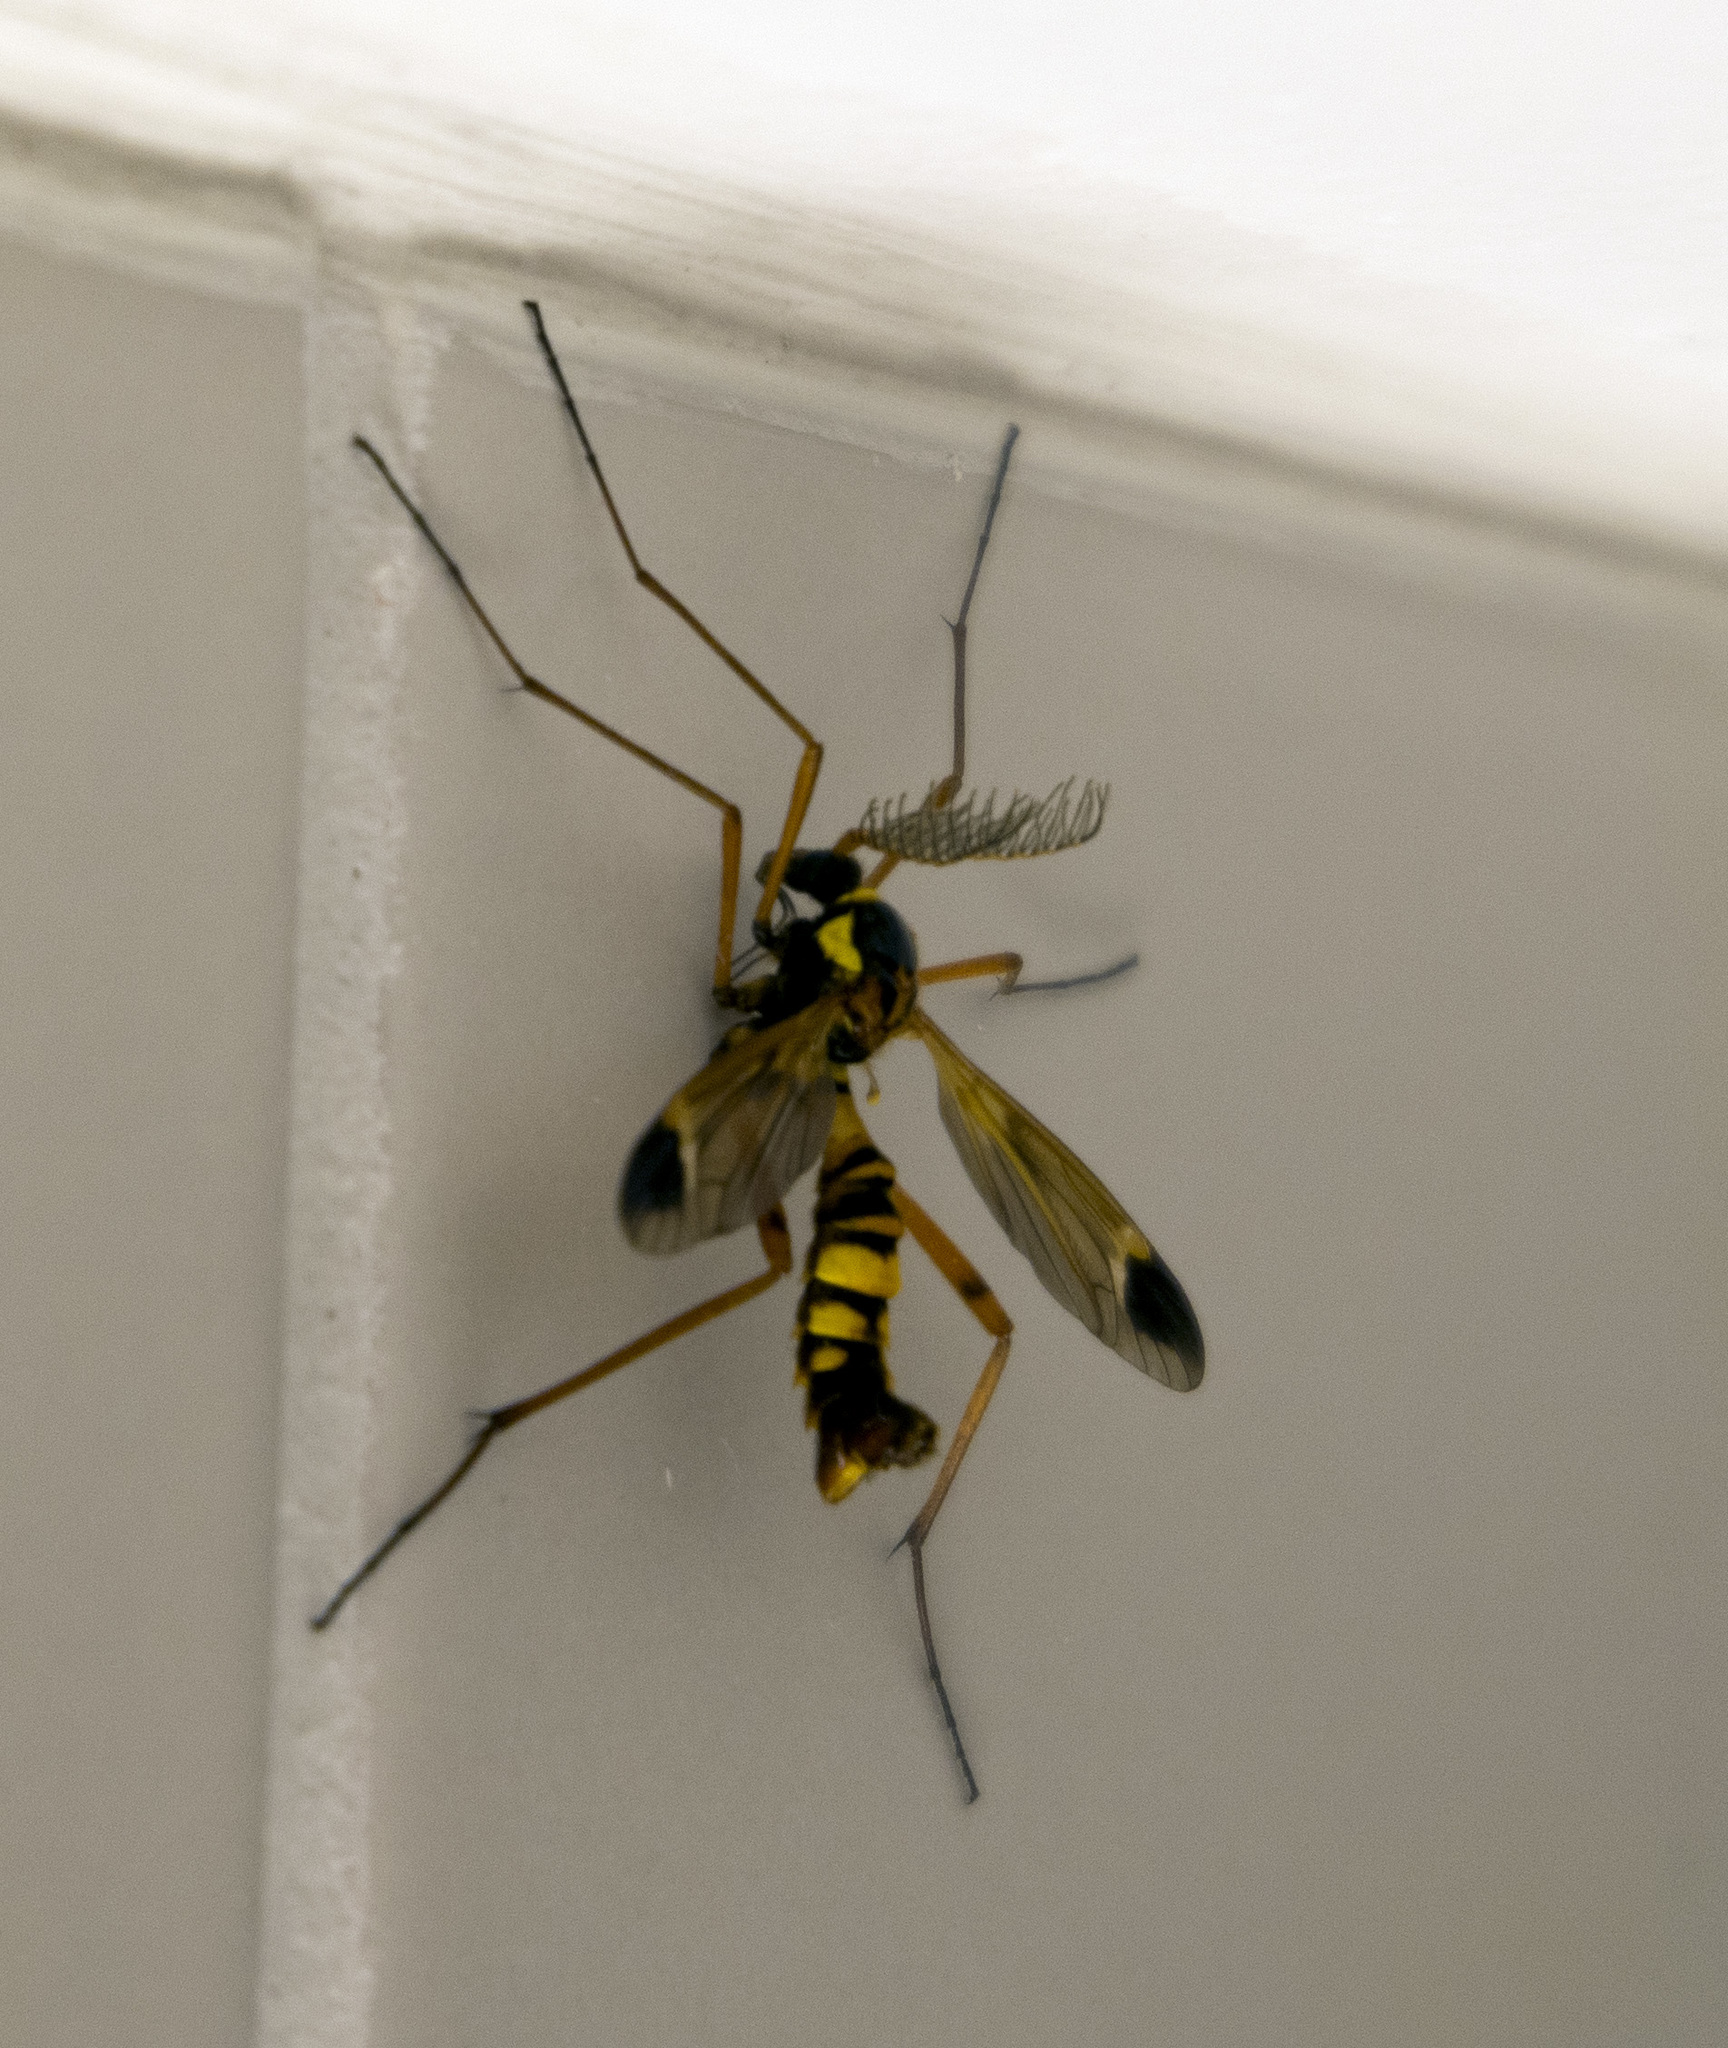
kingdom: Animalia
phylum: Arthropoda
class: Insecta
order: Diptera
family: Tipulidae
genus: Ctenophora
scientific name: Ctenophora ornata
